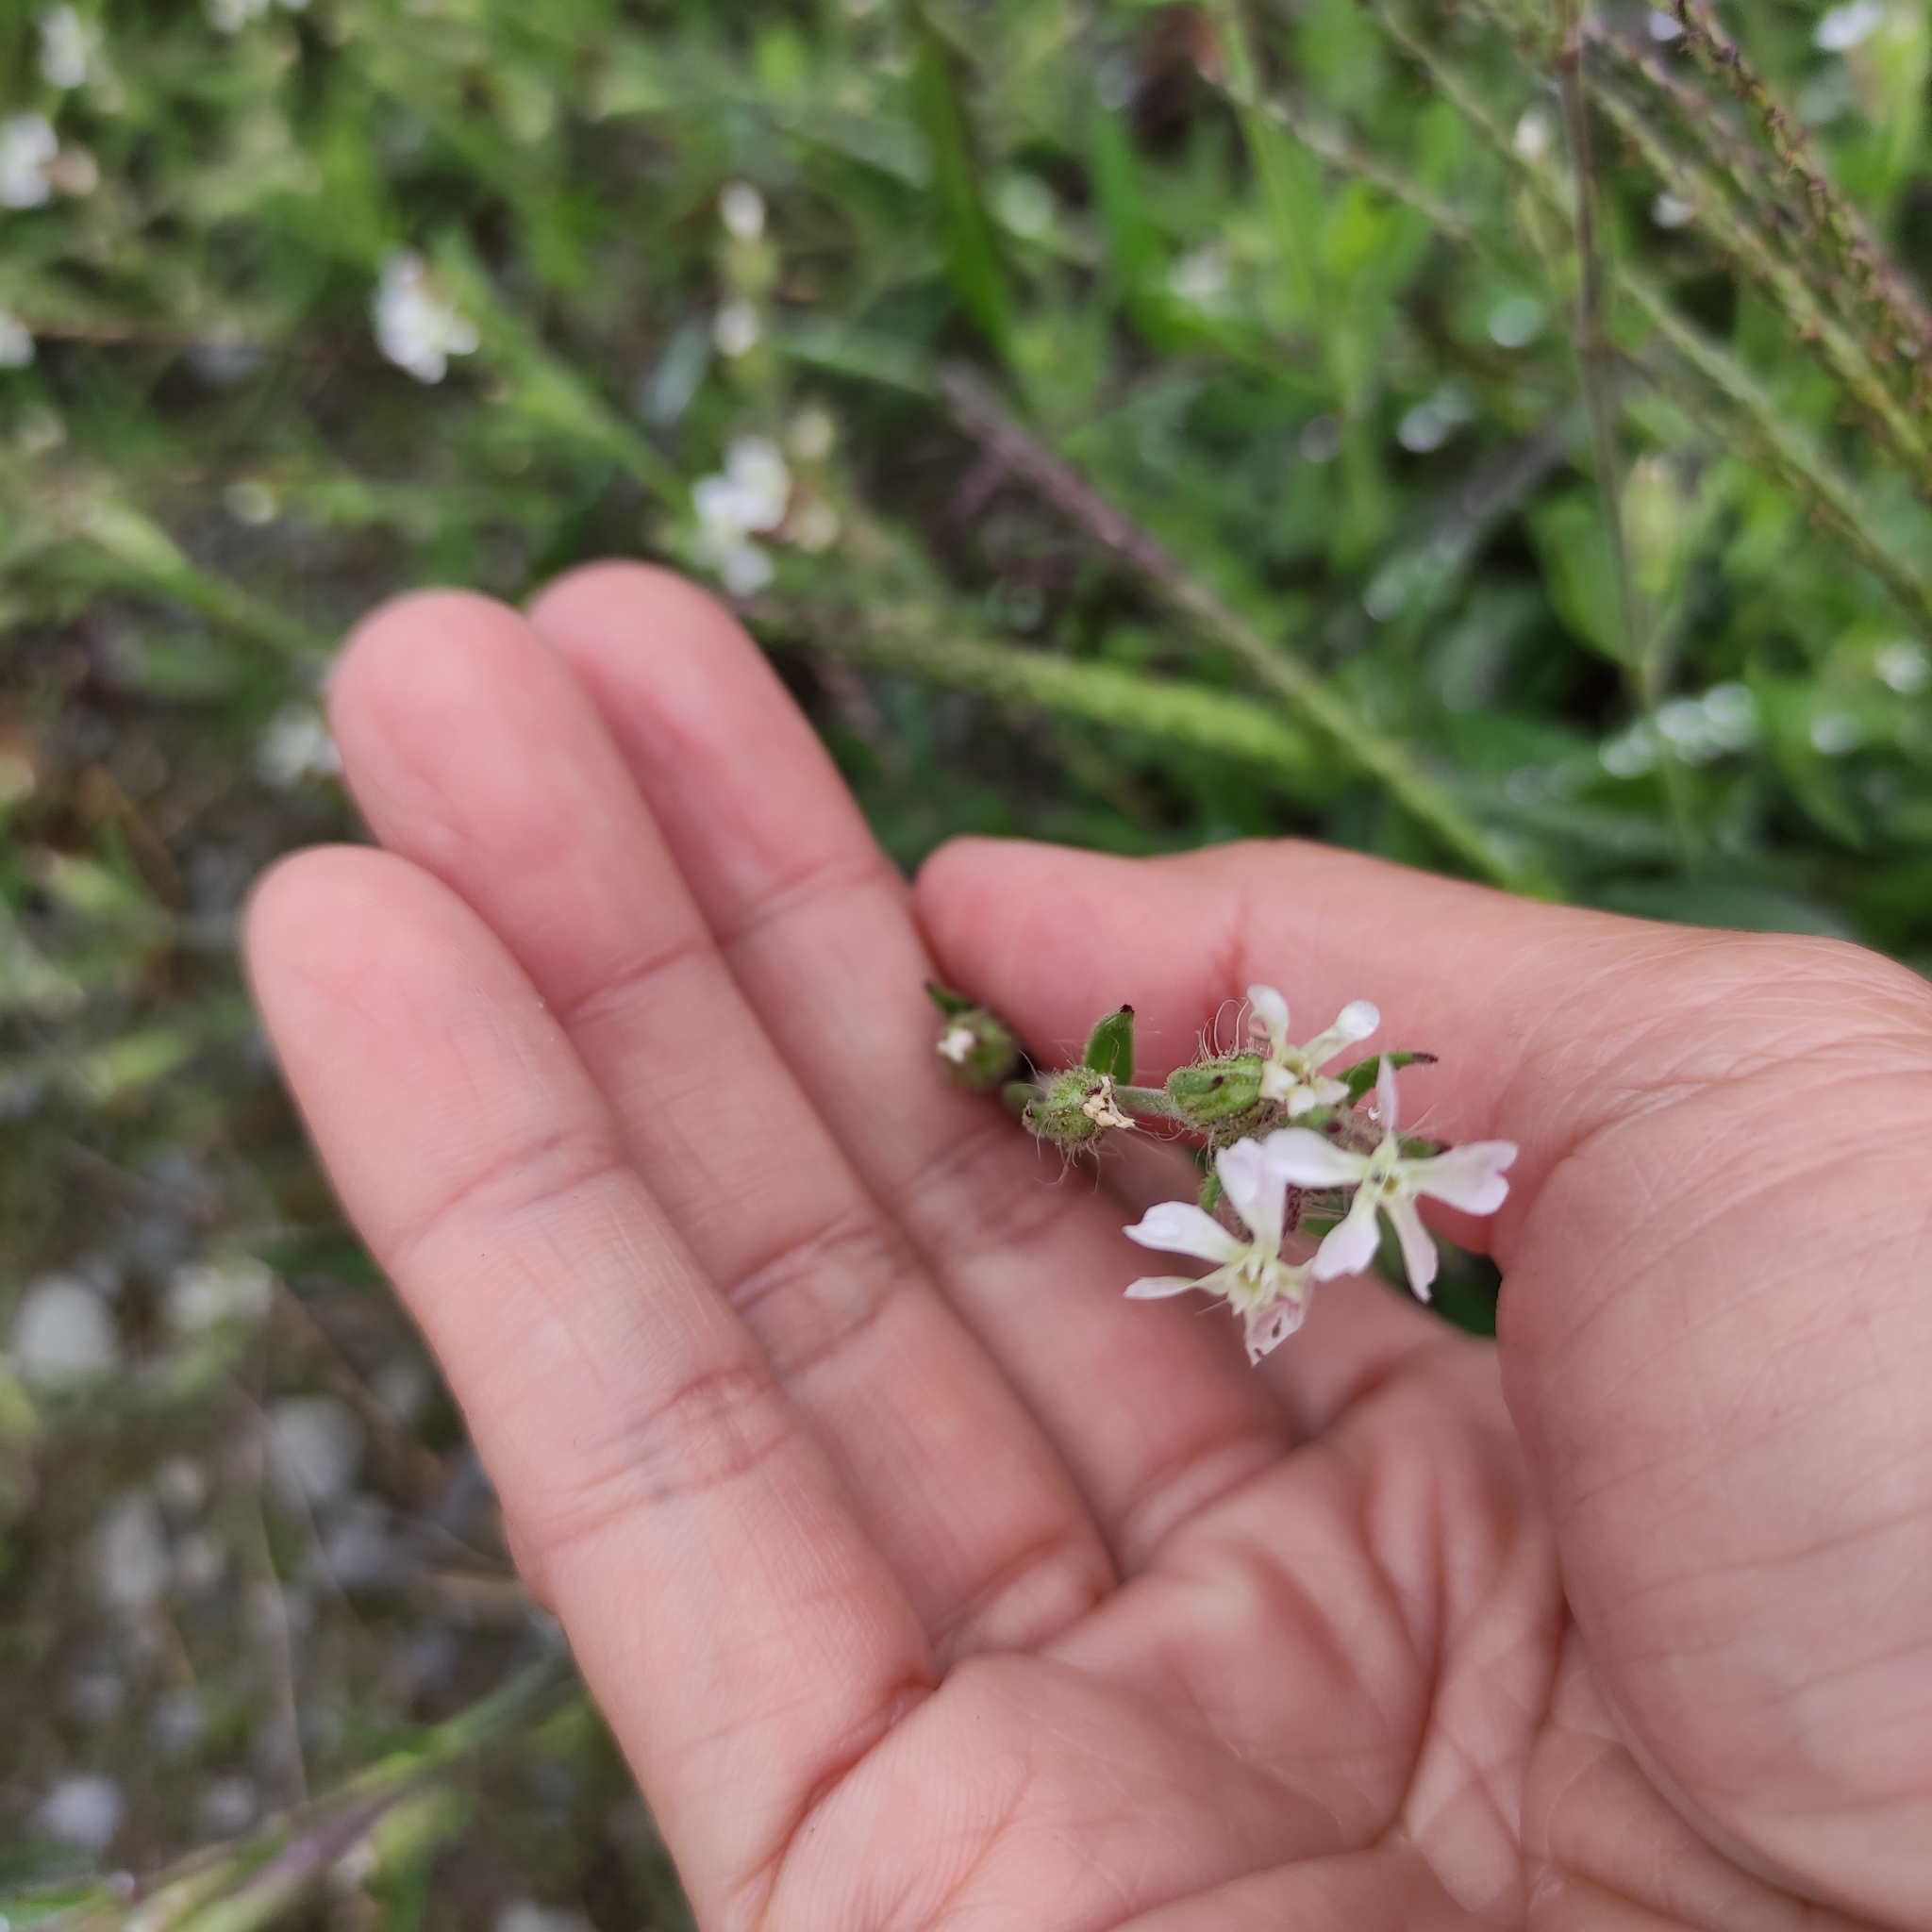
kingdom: Plantae
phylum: Tracheophyta
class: Magnoliopsida
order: Caryophyllales
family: Caryophyllaceae
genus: Silene
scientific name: Silene gallica
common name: Small-flowered catchfly
